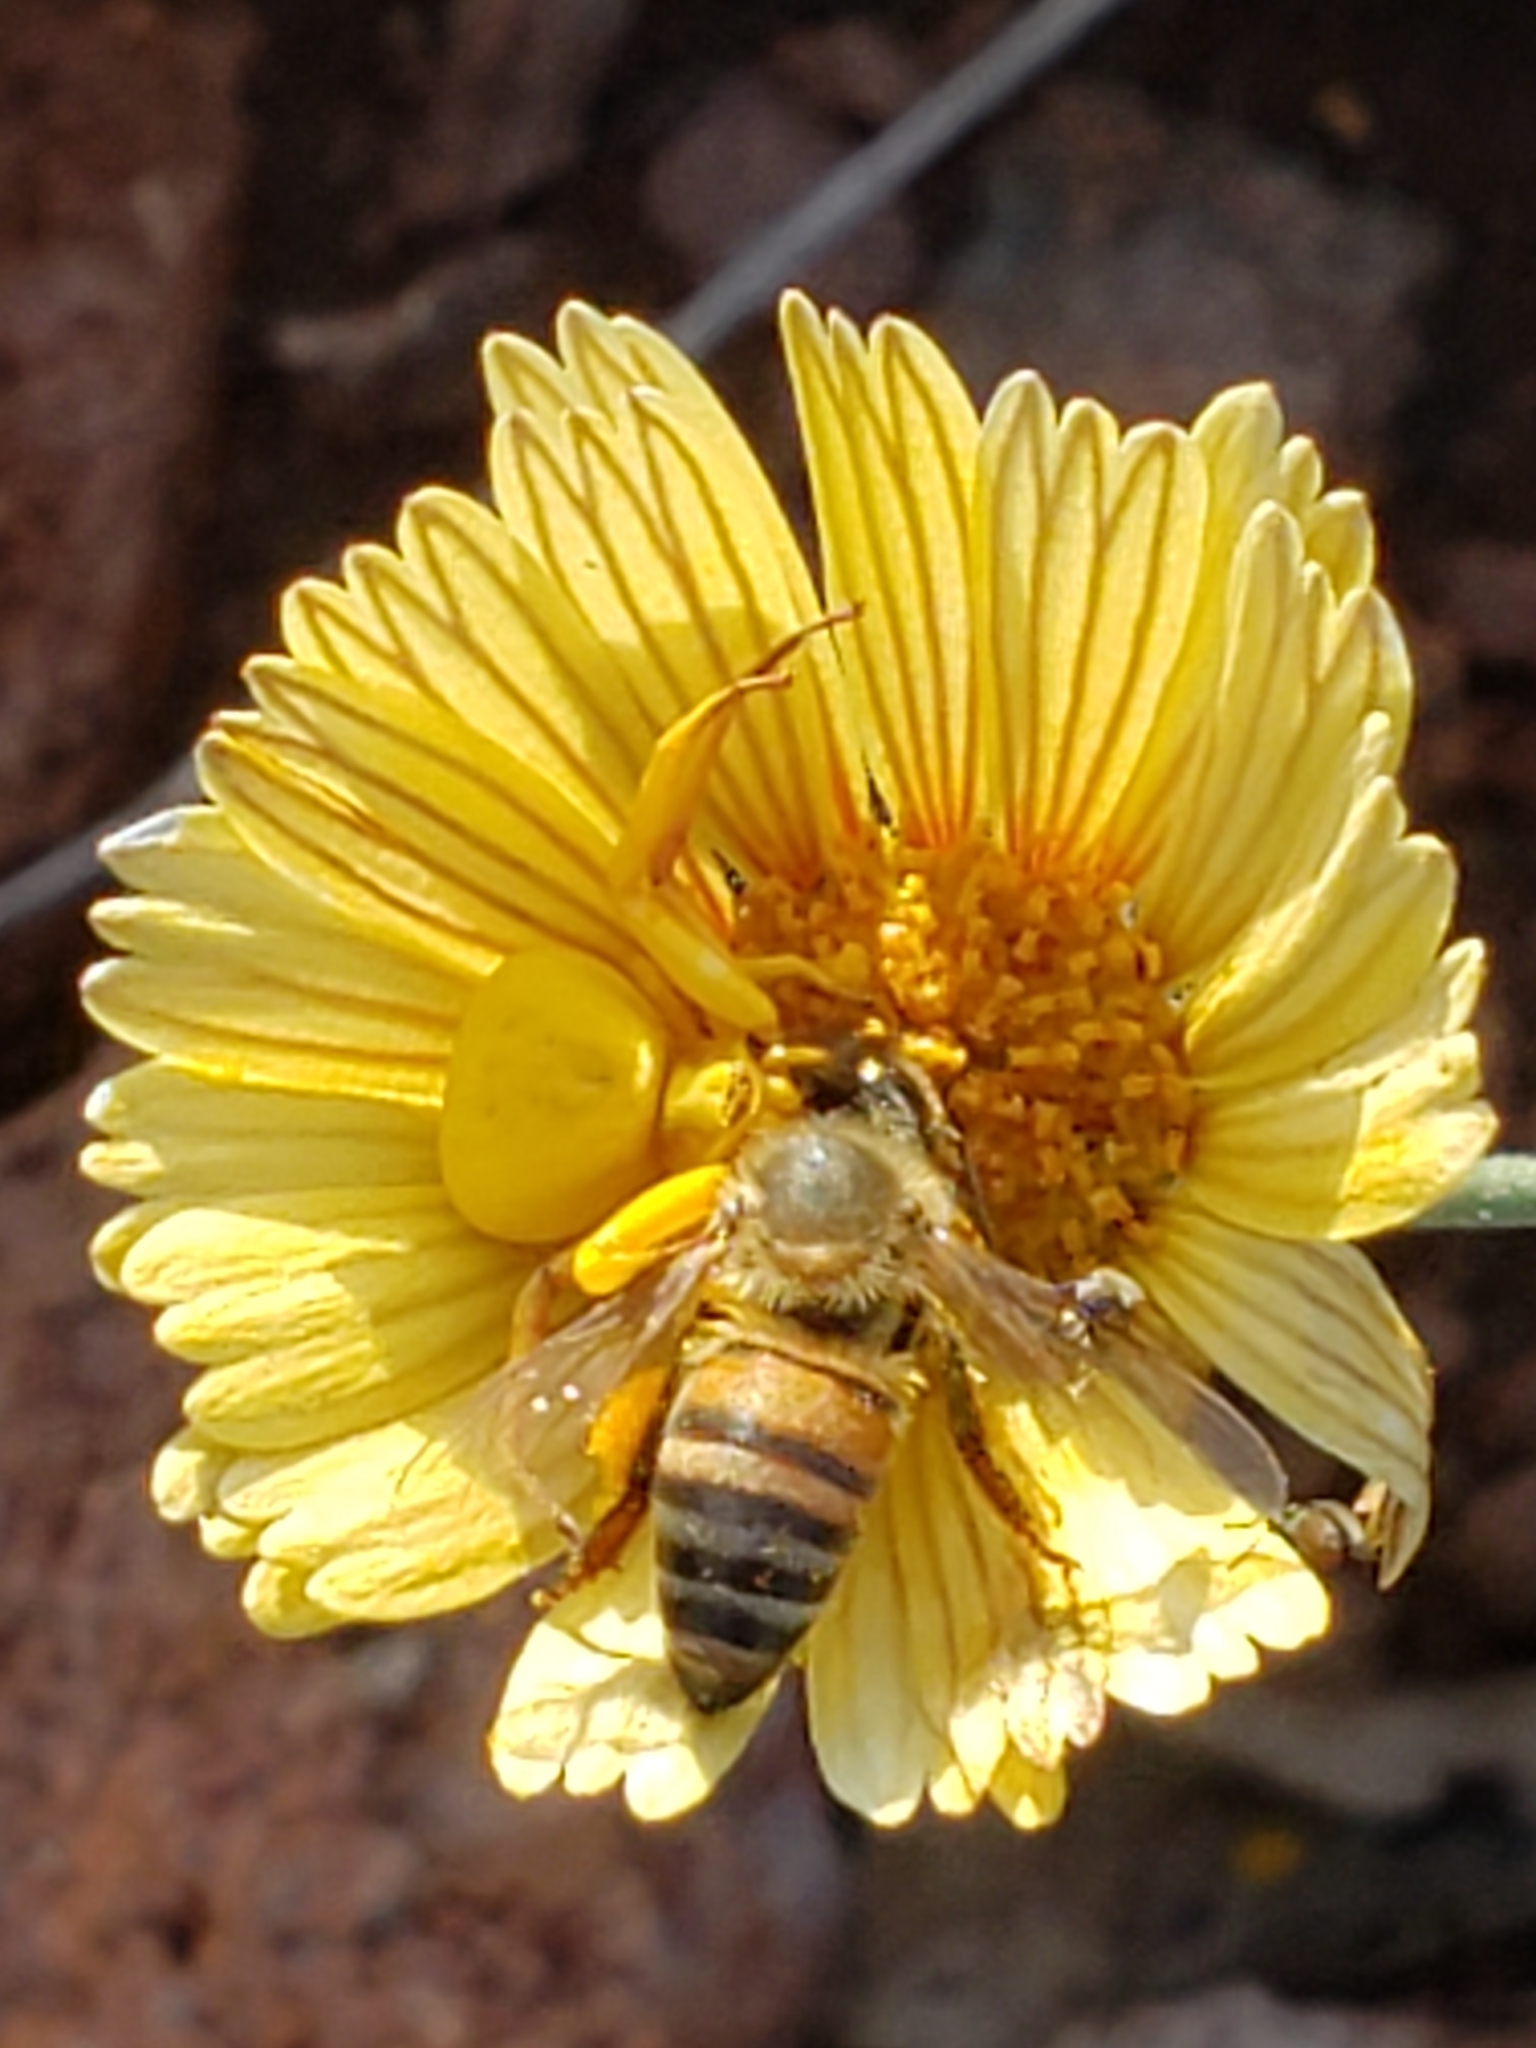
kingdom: Animalia
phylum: Arthropoda
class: Insecta
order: Hymenoptera
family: Apidae
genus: Apis
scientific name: Apis mellifera
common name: Honey bee
